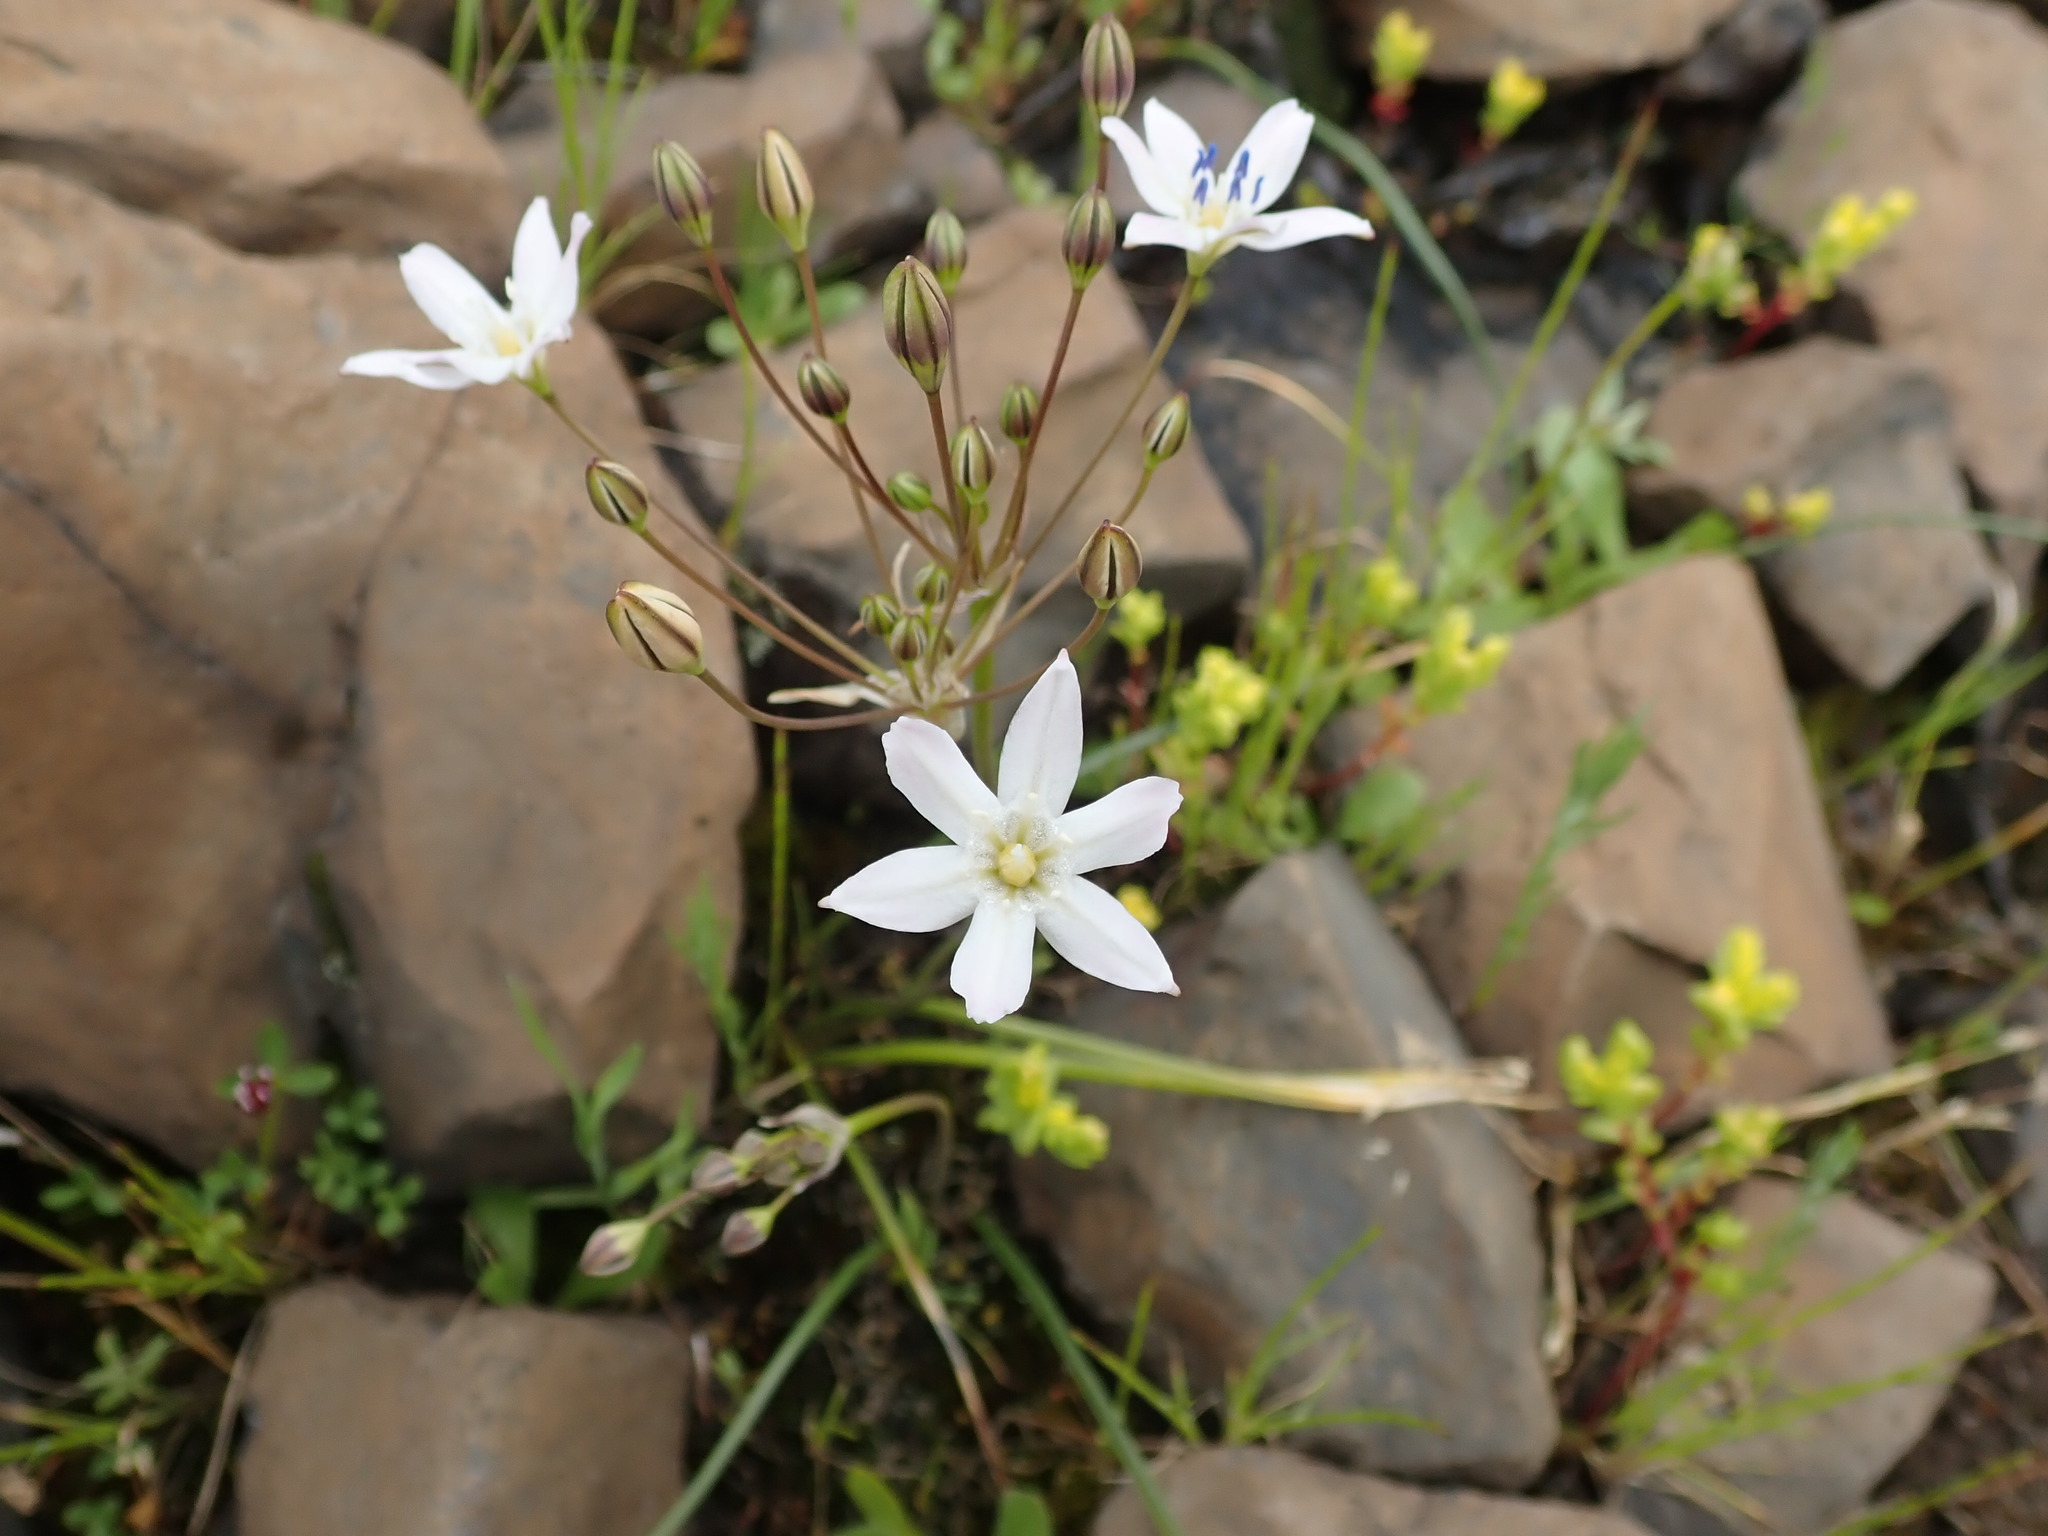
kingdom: Plantae
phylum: Tracheophyta
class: Liliopsida
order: Asparagales
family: Asparagaceae
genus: Triteleia
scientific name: Triteleia lilacina
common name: Lilac-flower wild hyacinth
